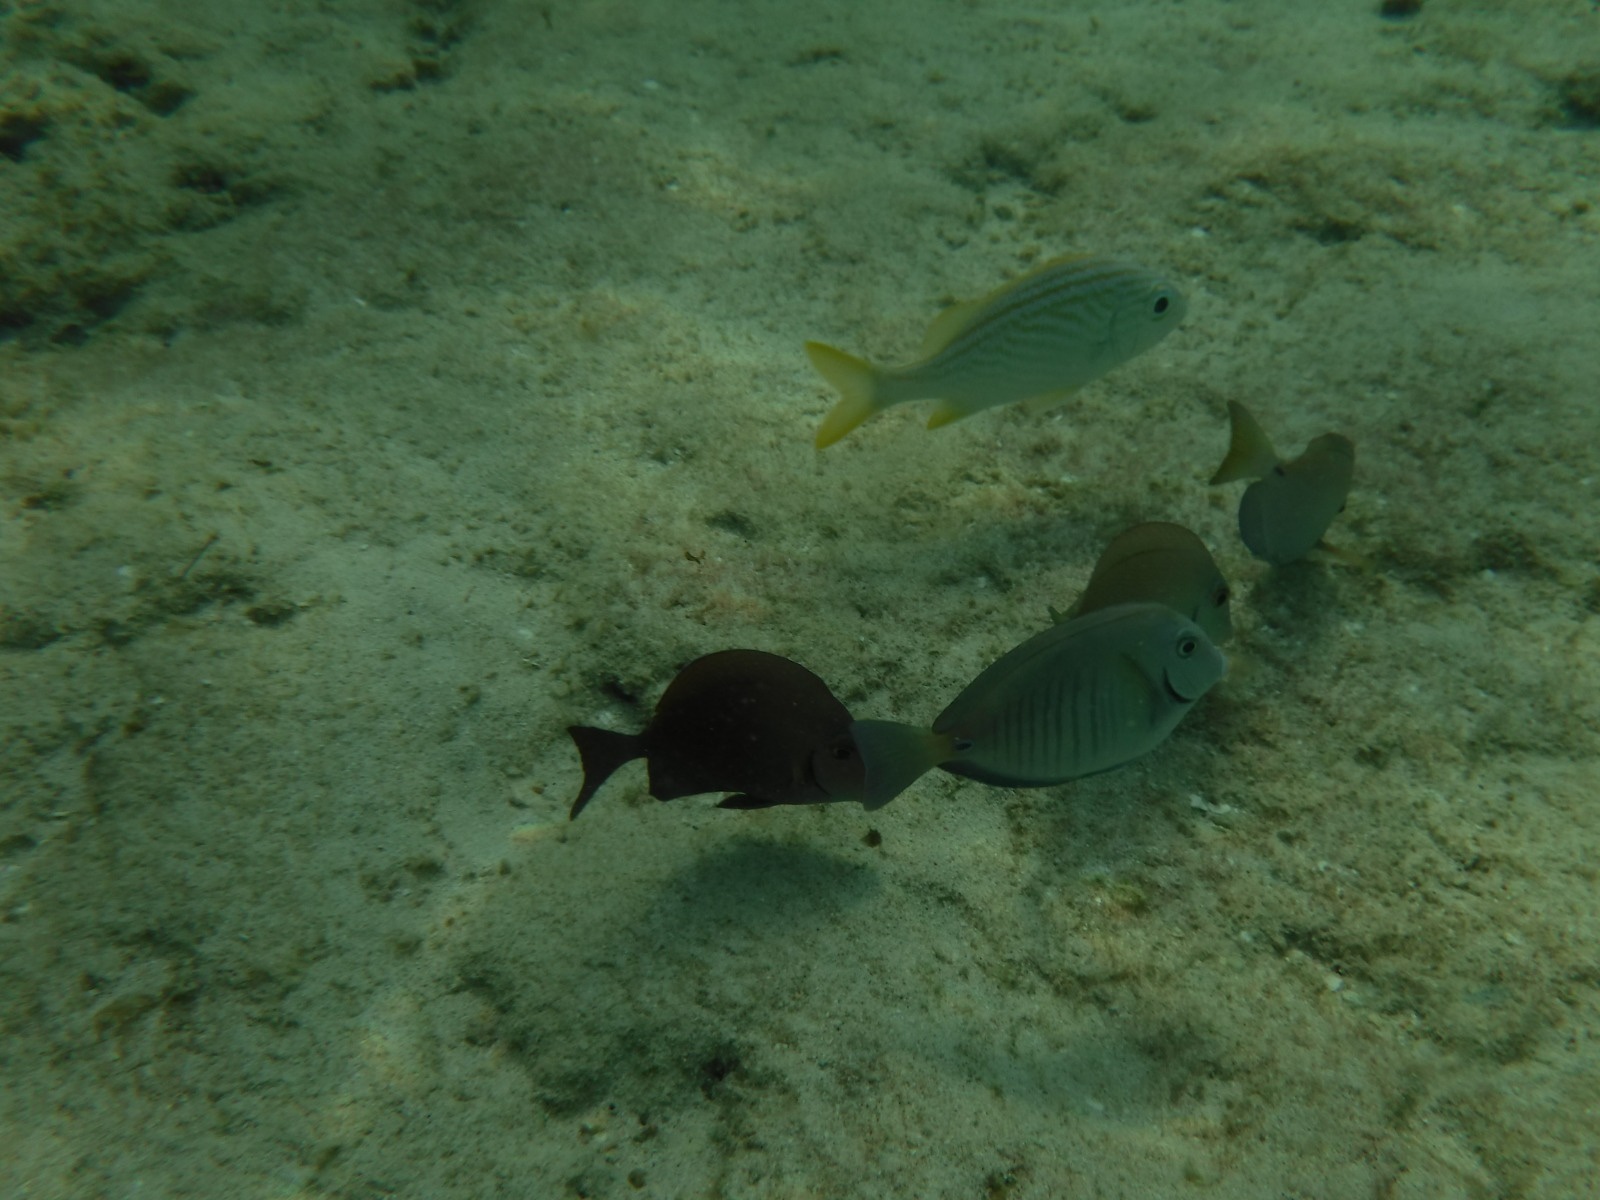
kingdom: Animalia
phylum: Chordata
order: Perciformes
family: Acanthuridae
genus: Acanthurus
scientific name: Acanthurus chirurgus
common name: Doctorfish
